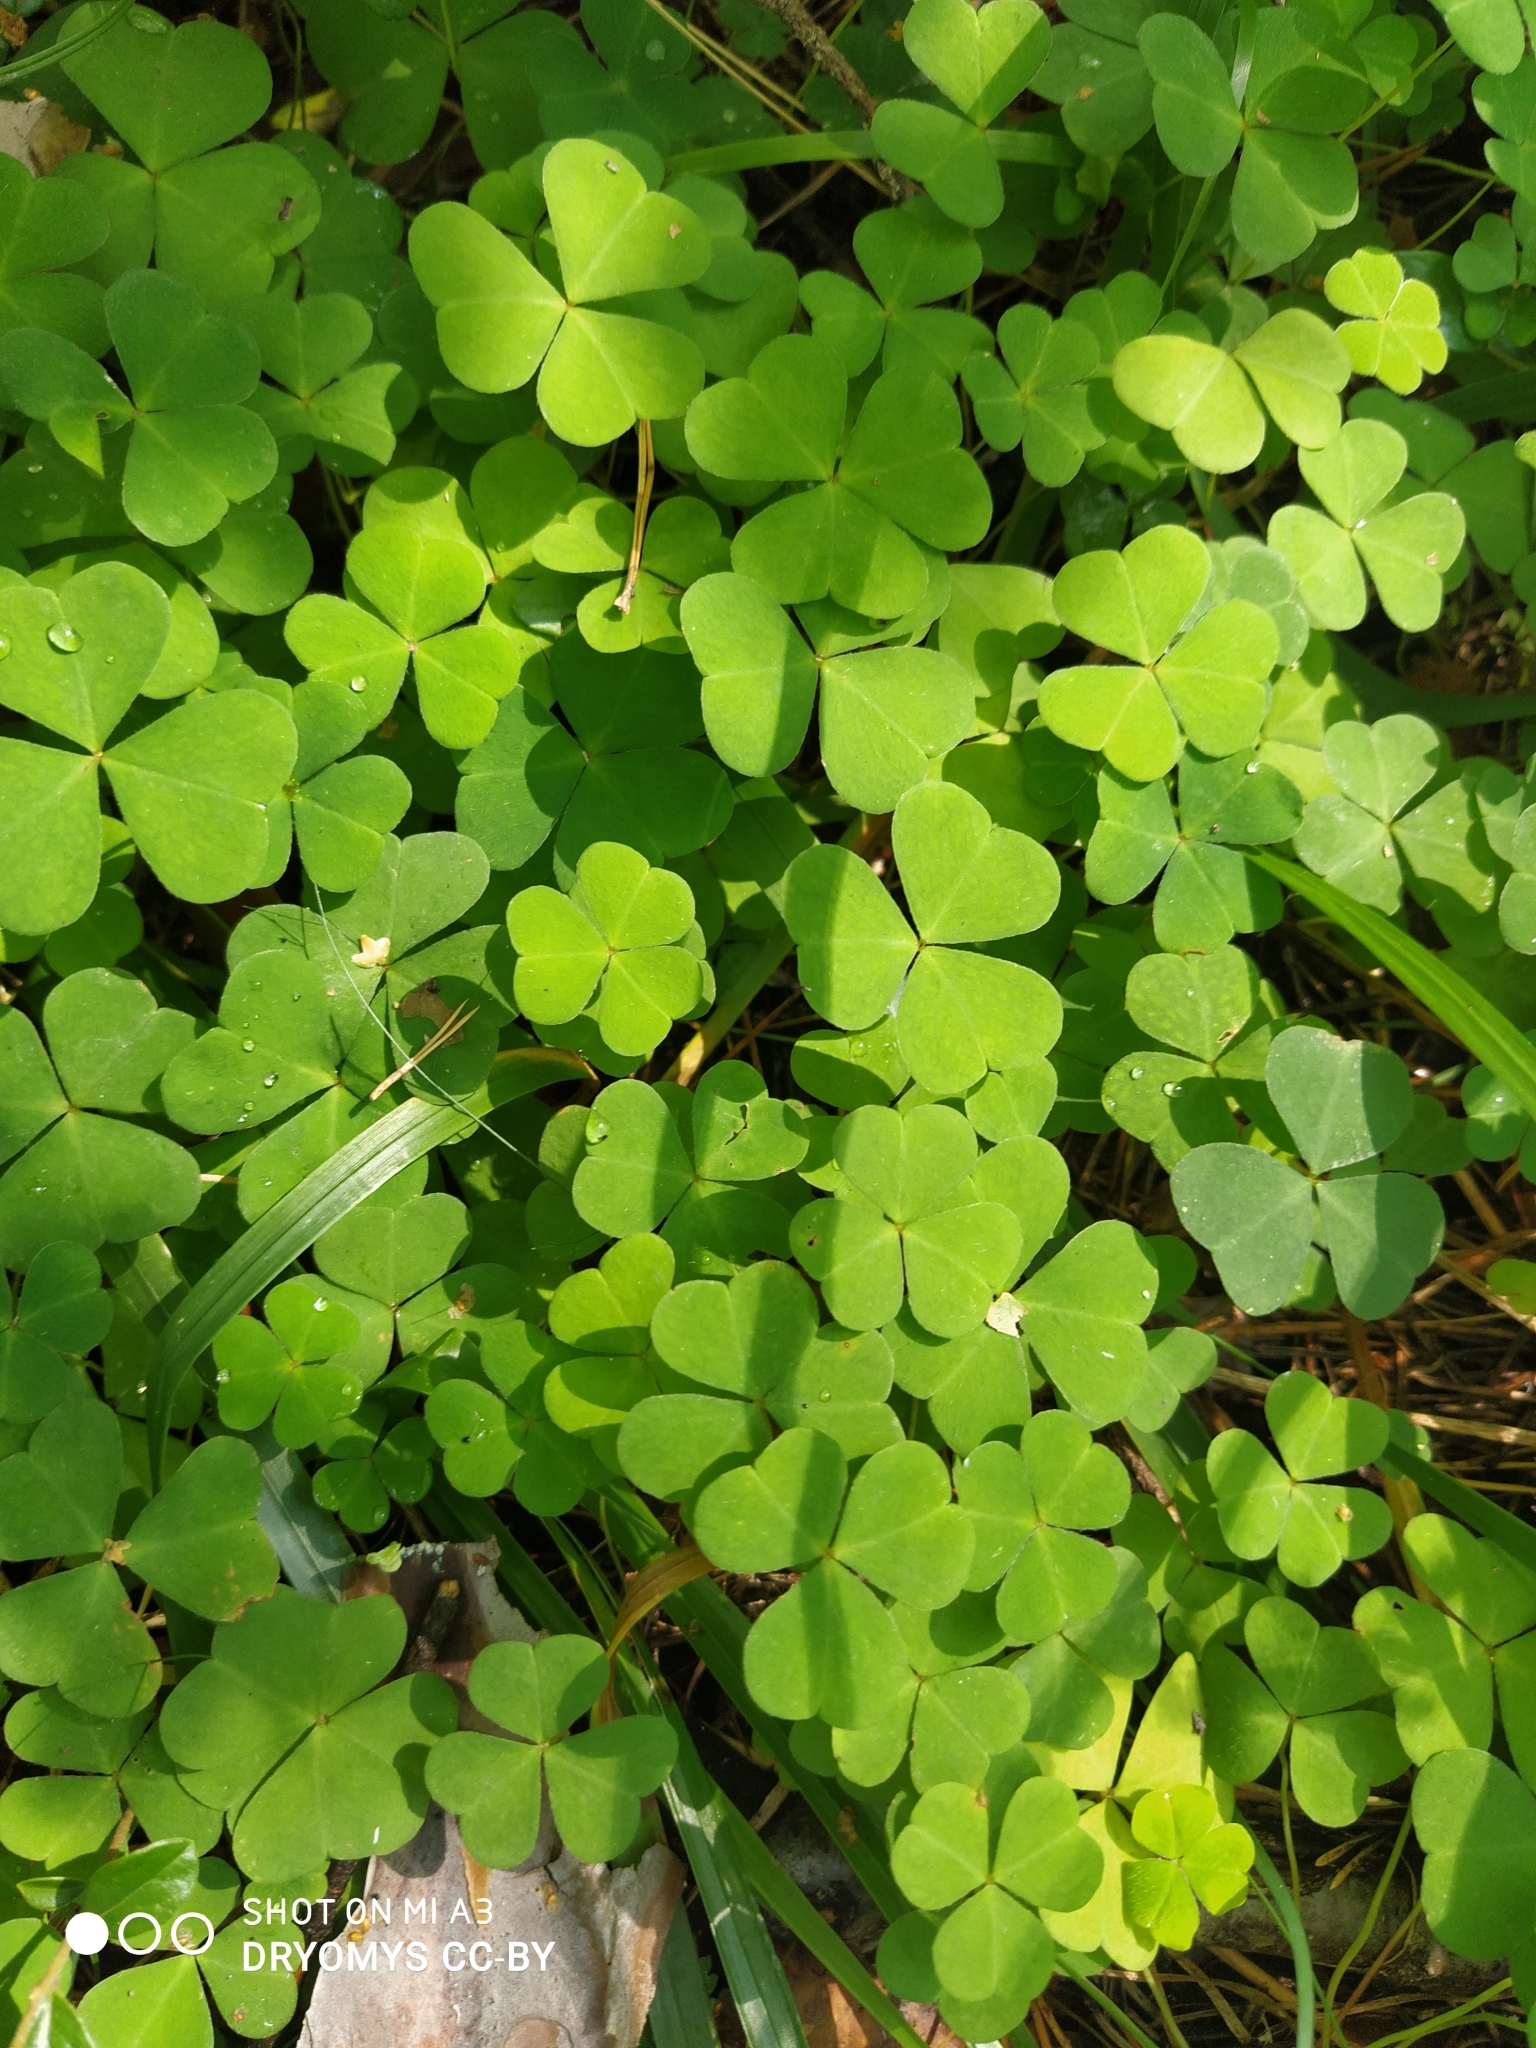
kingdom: Plantae
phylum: Tracheophyta
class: Magnoliopsida
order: Oxalidales
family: Oxalidaceae
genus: Oxalis
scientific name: Oxalis acetosella
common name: Wood-sorrel
